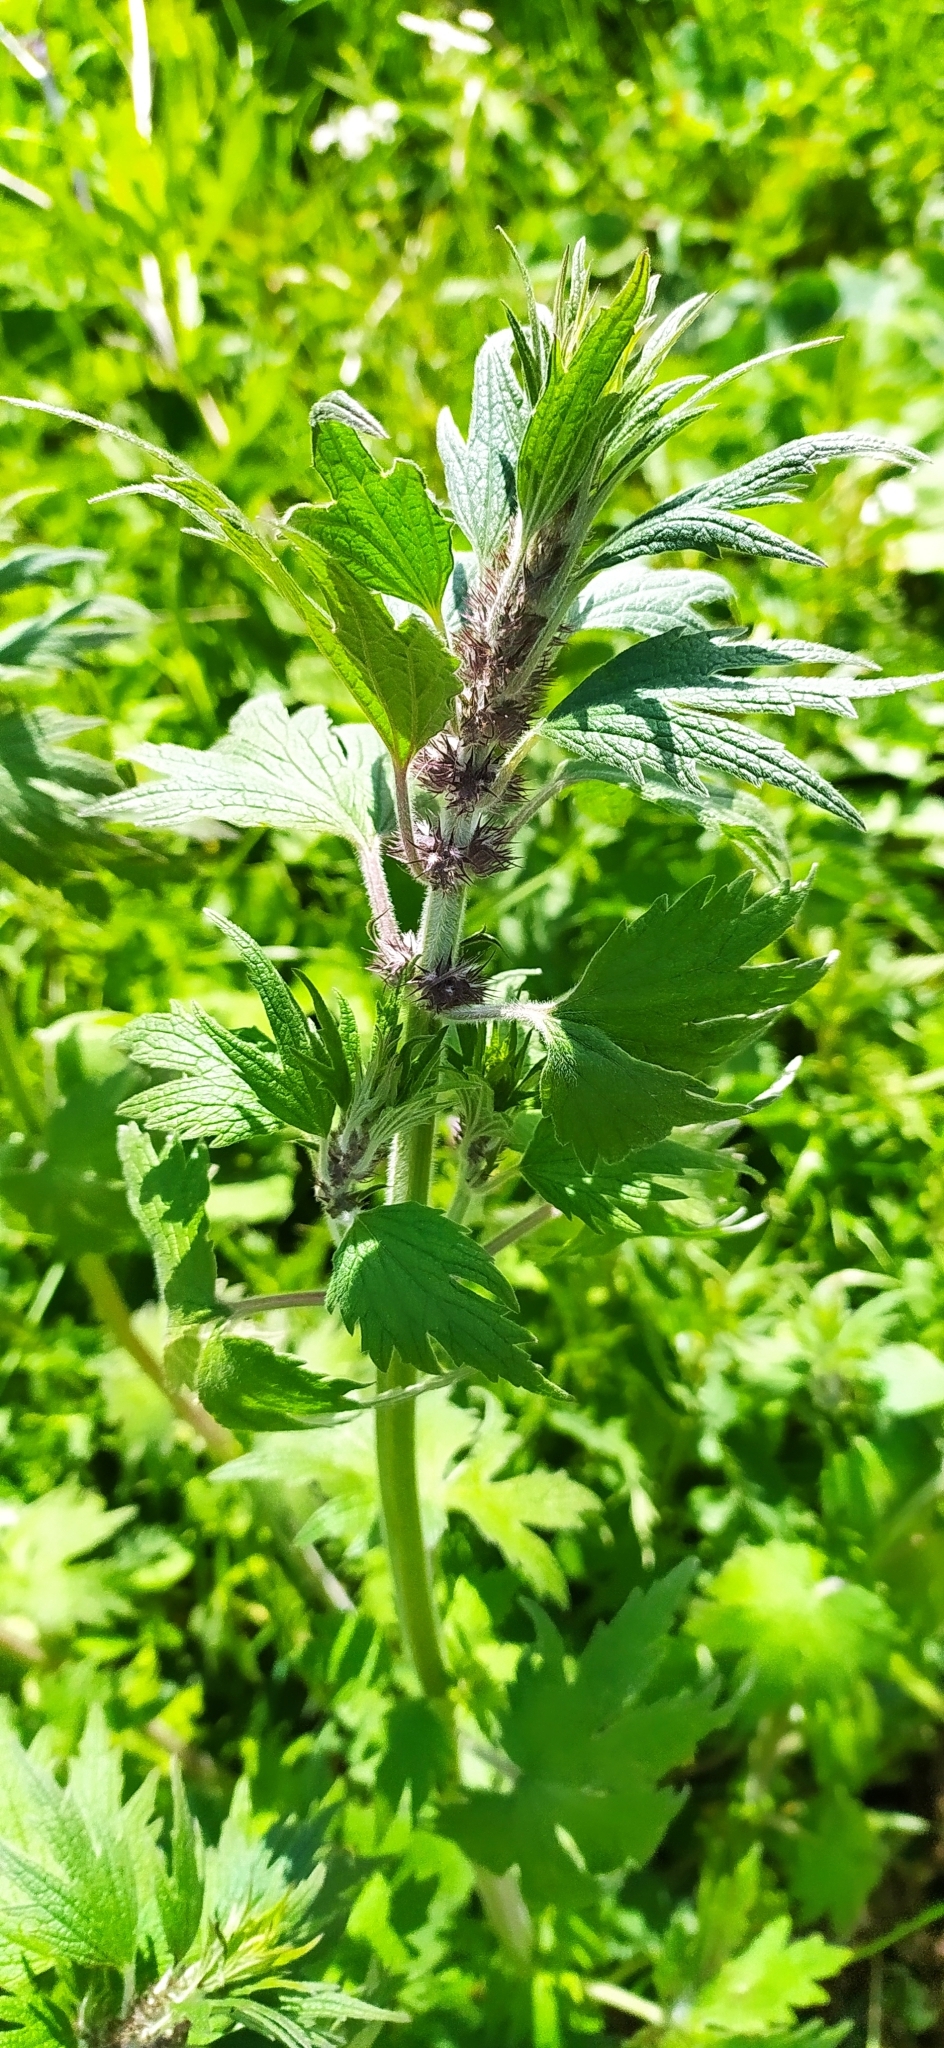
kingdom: Plantae
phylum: Tracheophyta
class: Magnoliopsida
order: Lamiales
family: Lamiaceae
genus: Leonurus
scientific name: Leonurus quinquelobatus
